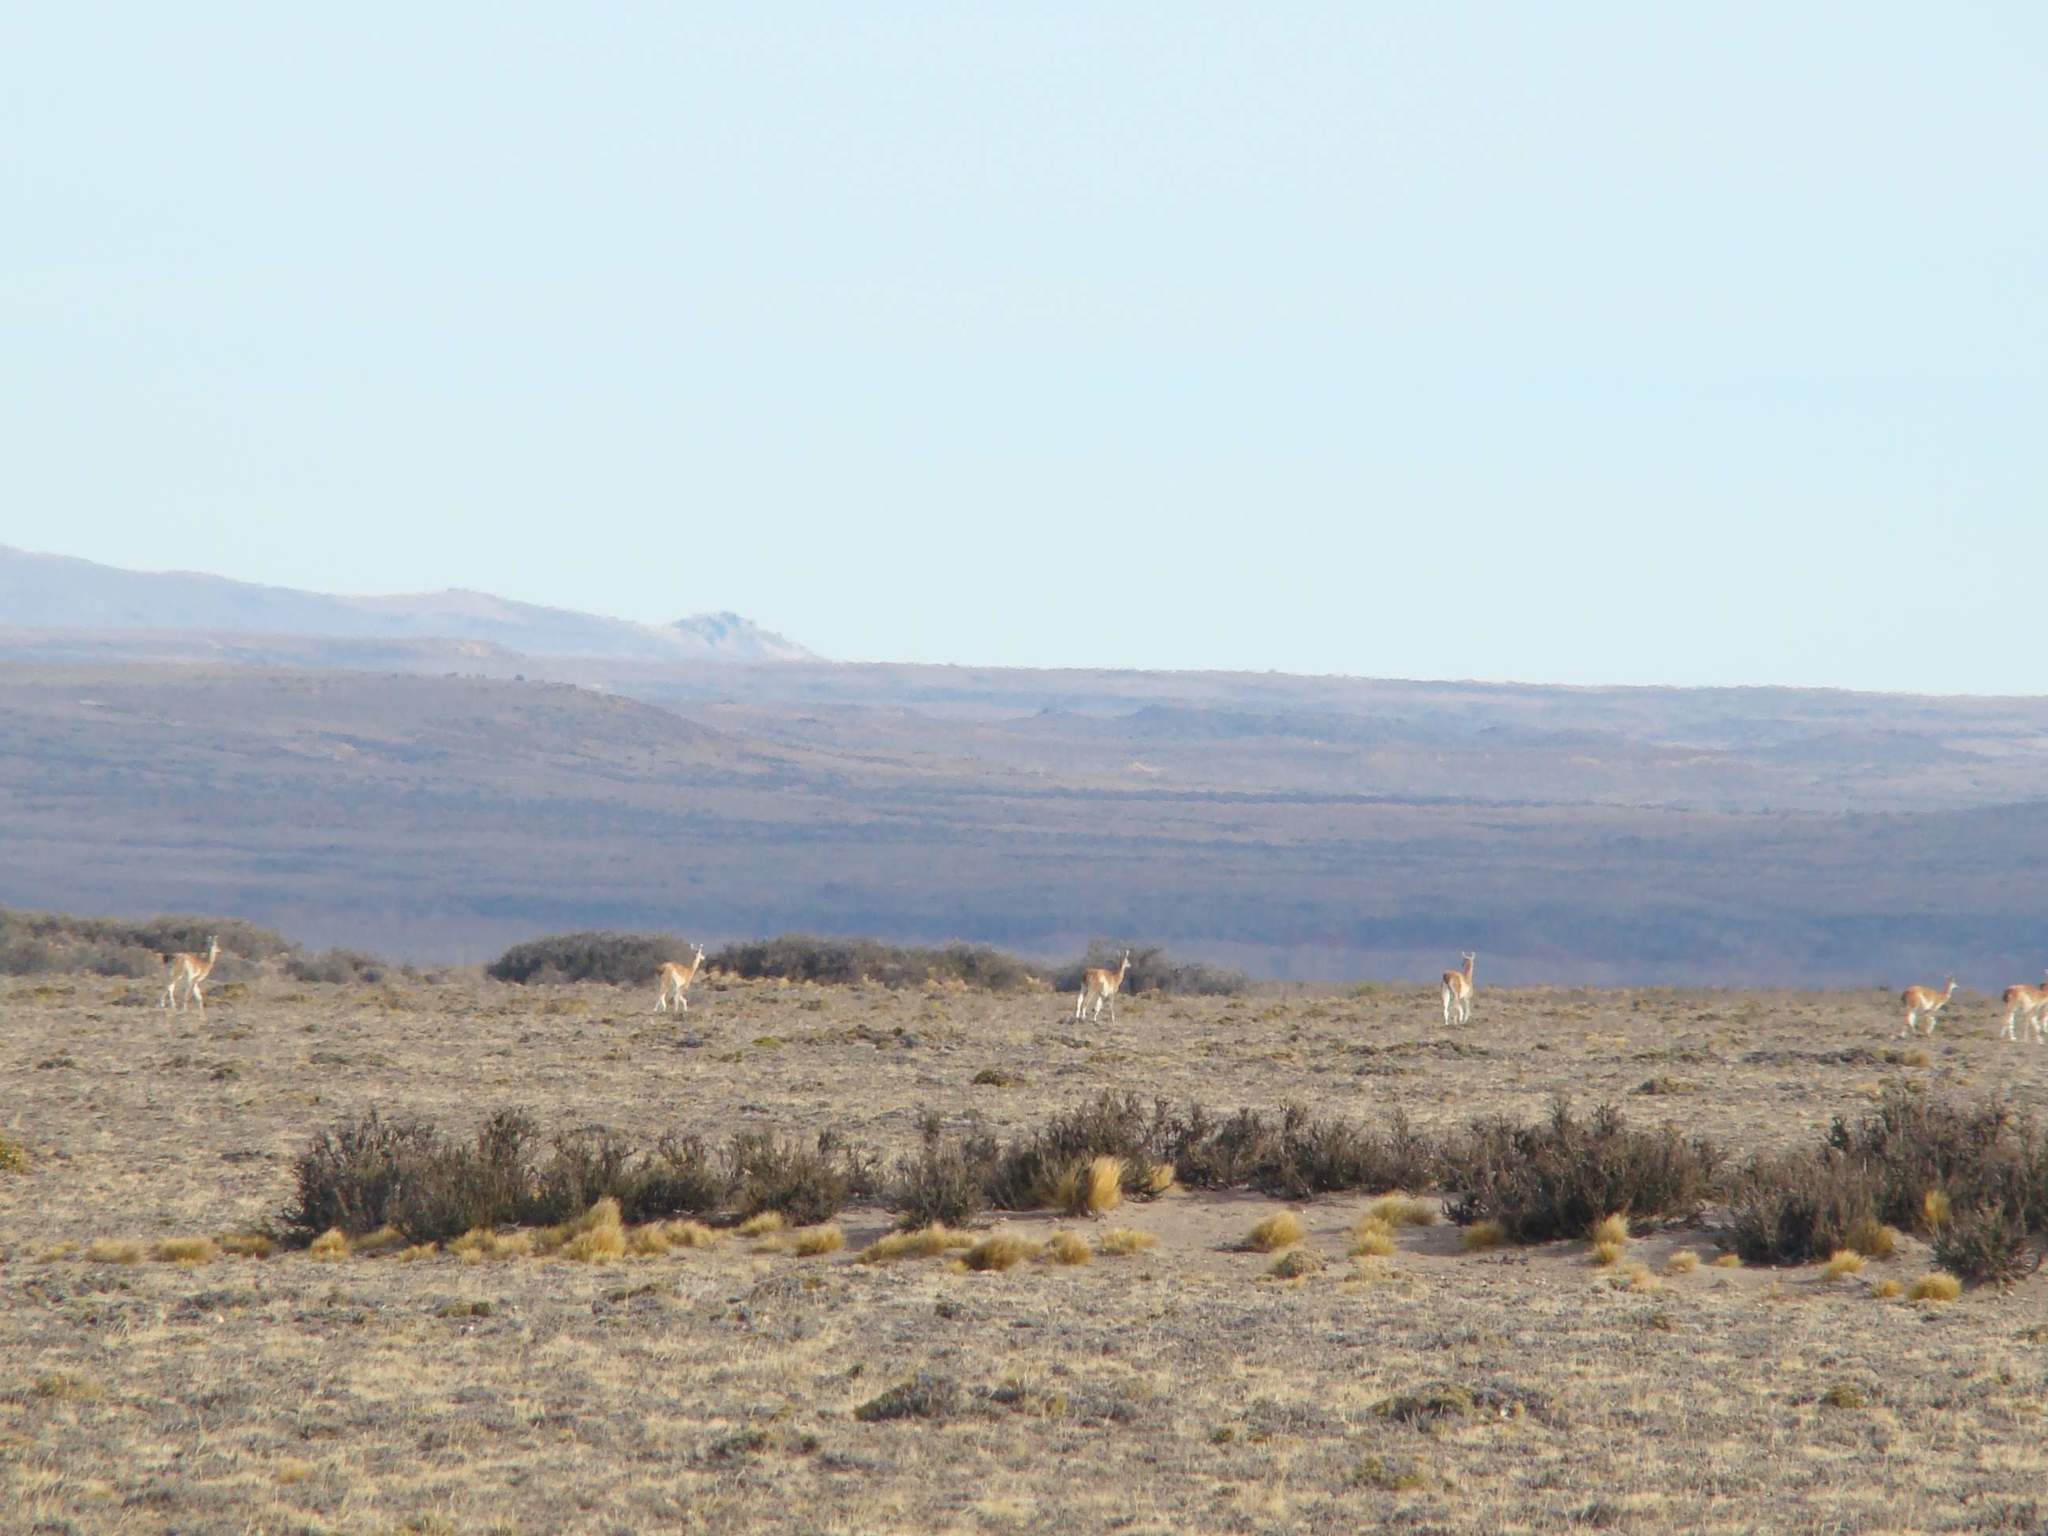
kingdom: Animalia
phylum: Chordata
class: Mammalia
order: Artiodactyla
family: Camelidae
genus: Lama
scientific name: Lama glama
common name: Llama
